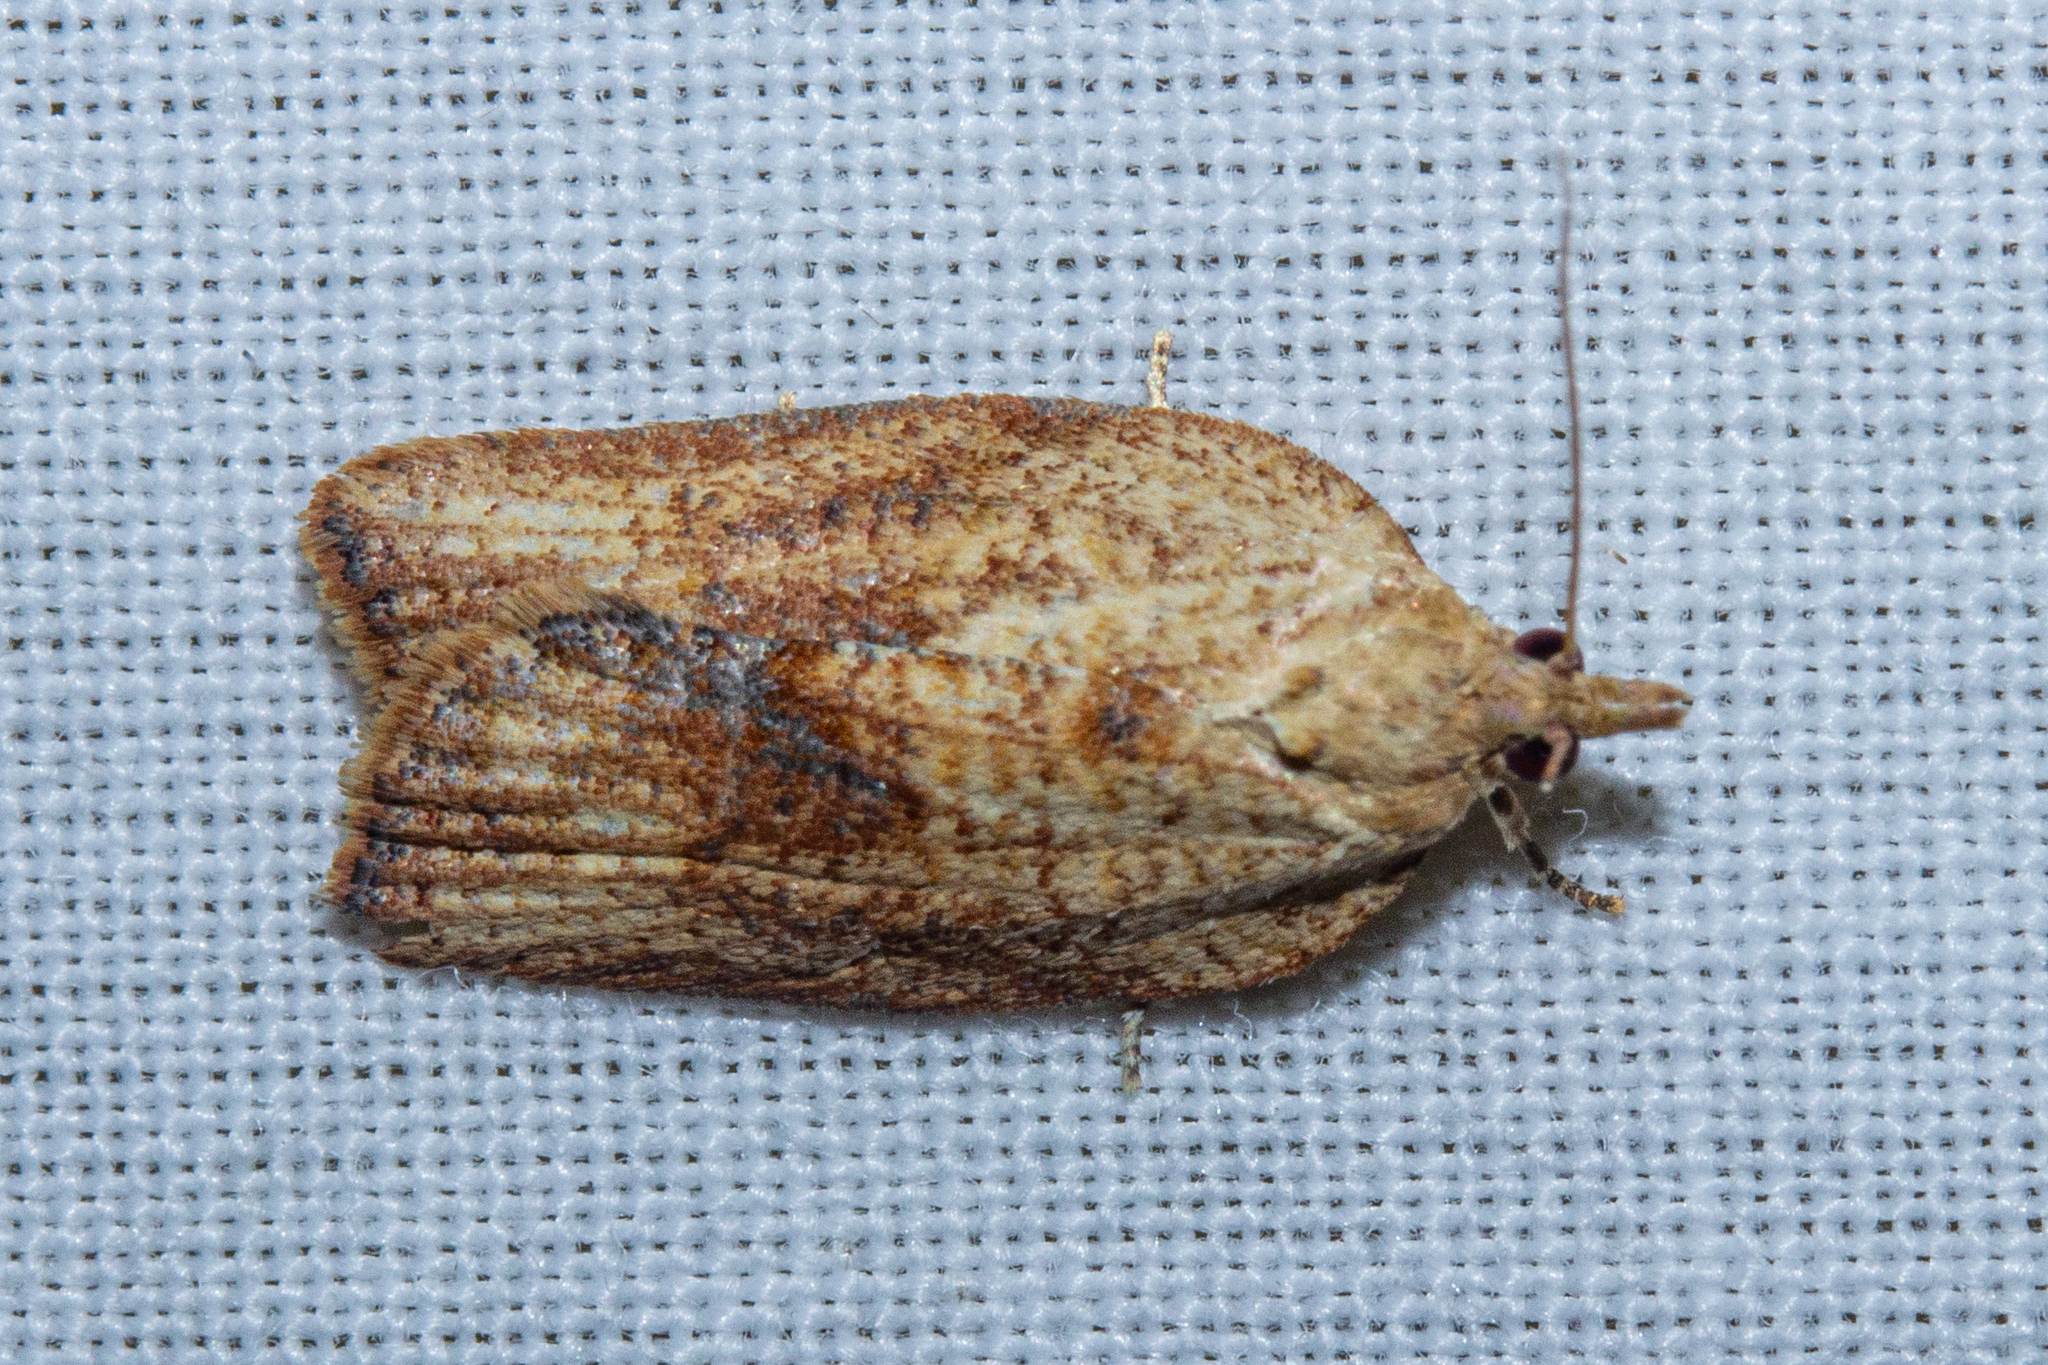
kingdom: Animalia
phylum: Arthropoda
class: Insecta
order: Lepidoptera
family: Tortricidae
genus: Epiphyas
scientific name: Epiphyas postvittana
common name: Light brown apple moth
